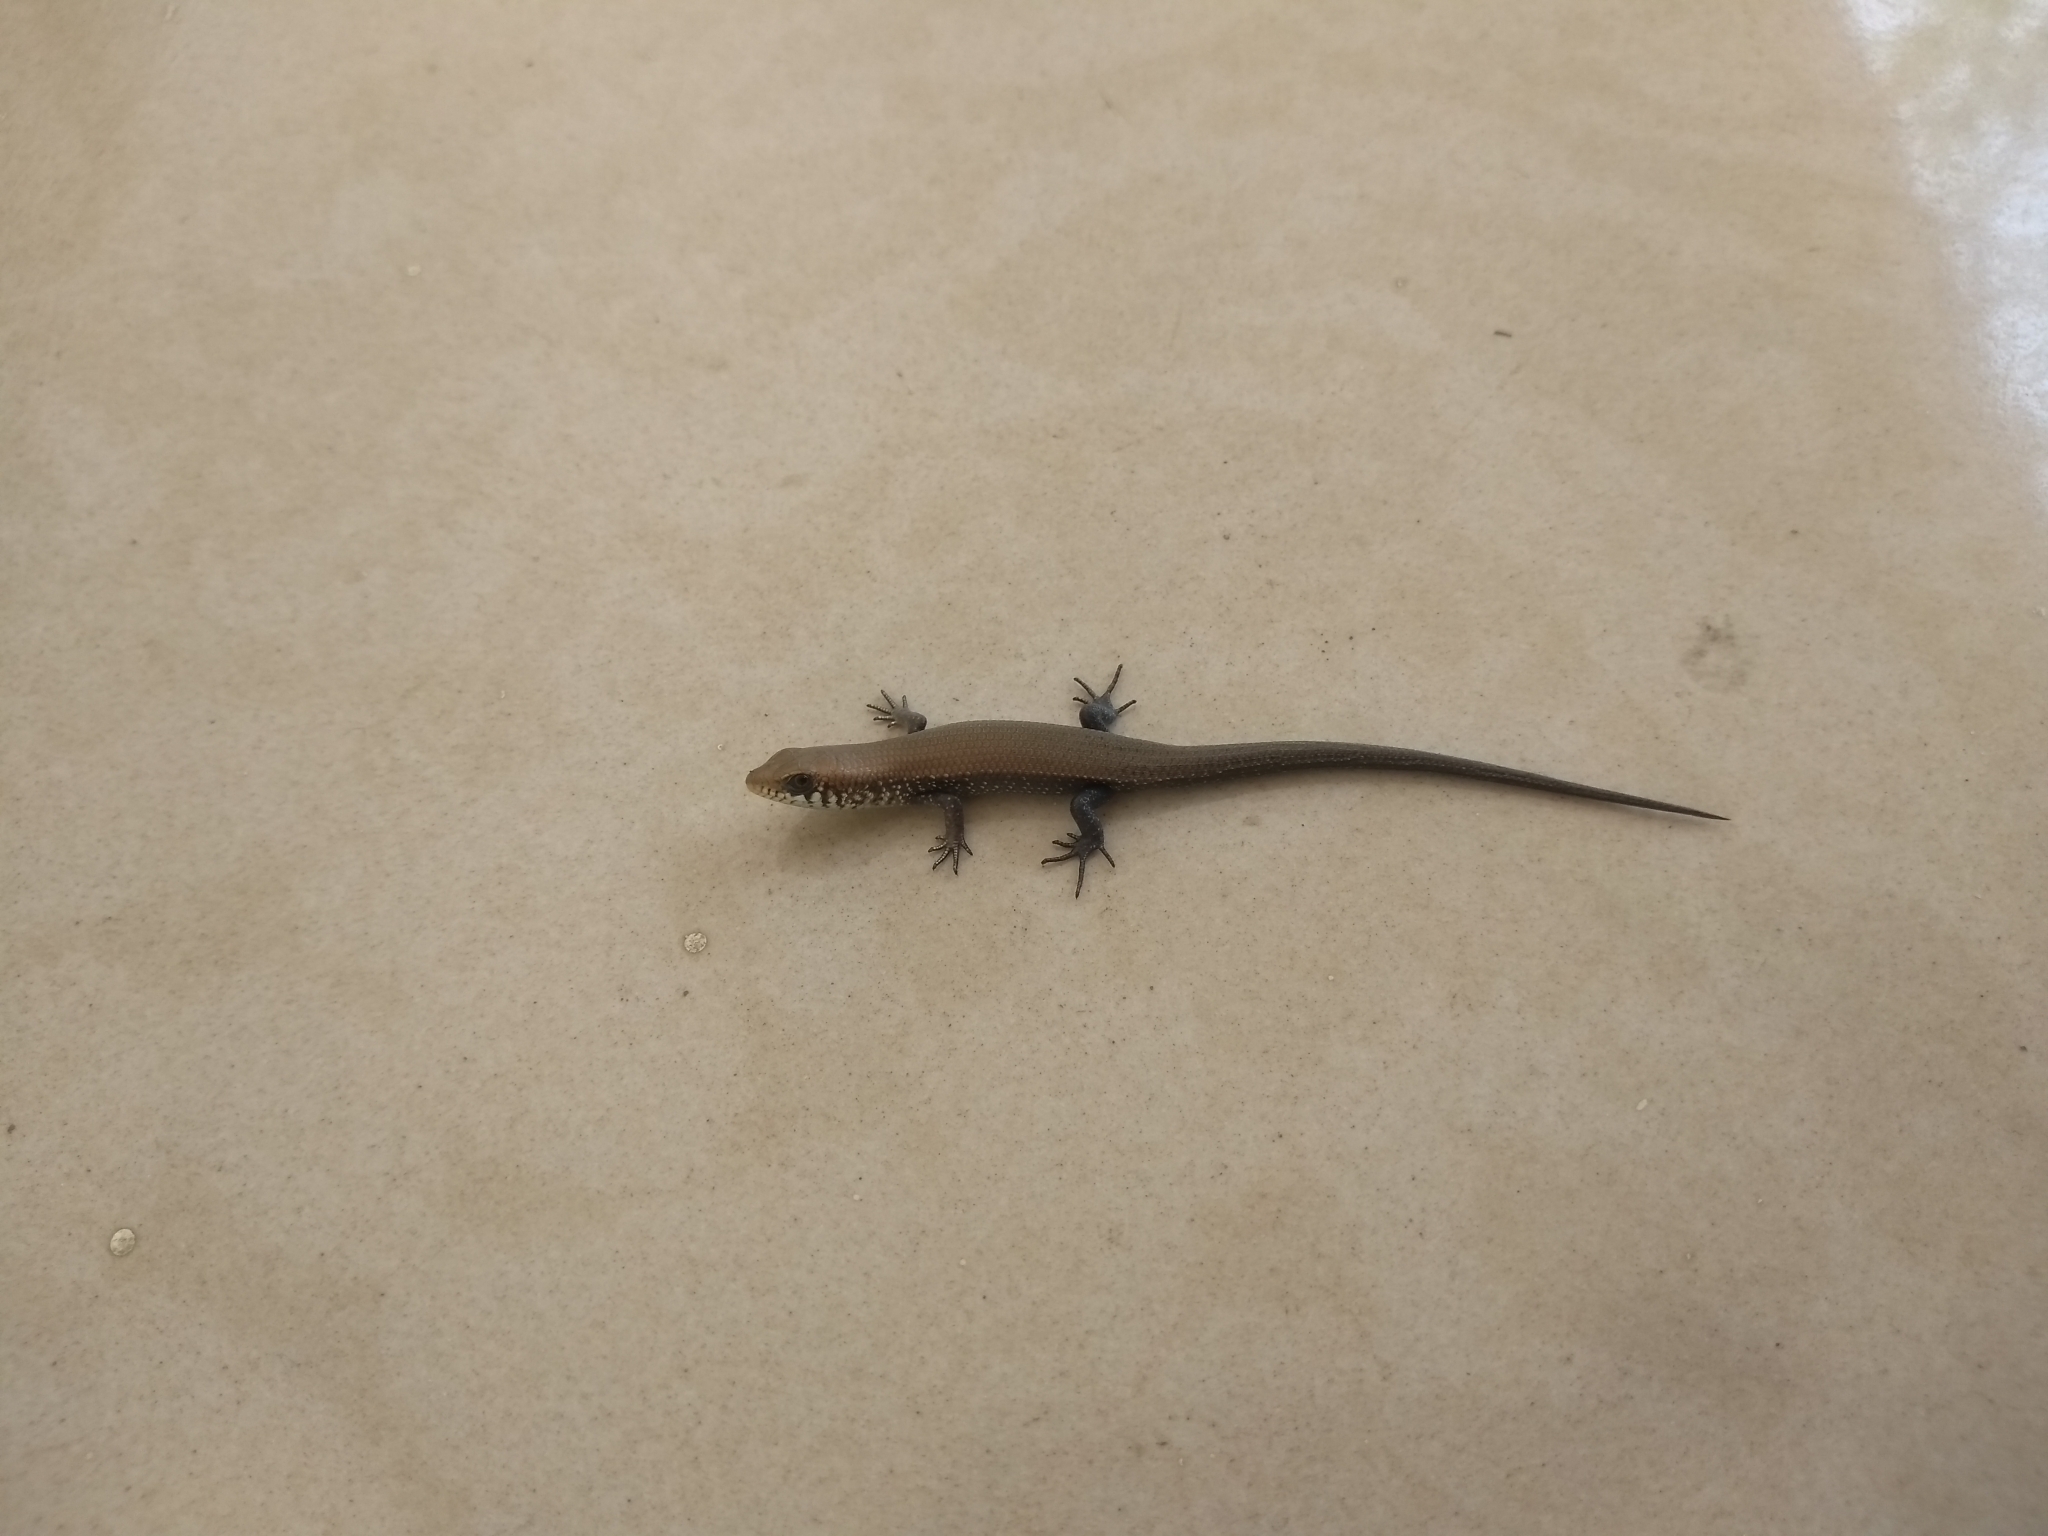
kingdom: Animalia
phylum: Chordata
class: Squamata
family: Scincidae
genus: Eutropis
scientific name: Eutropis macularia
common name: Bronze mabuya
